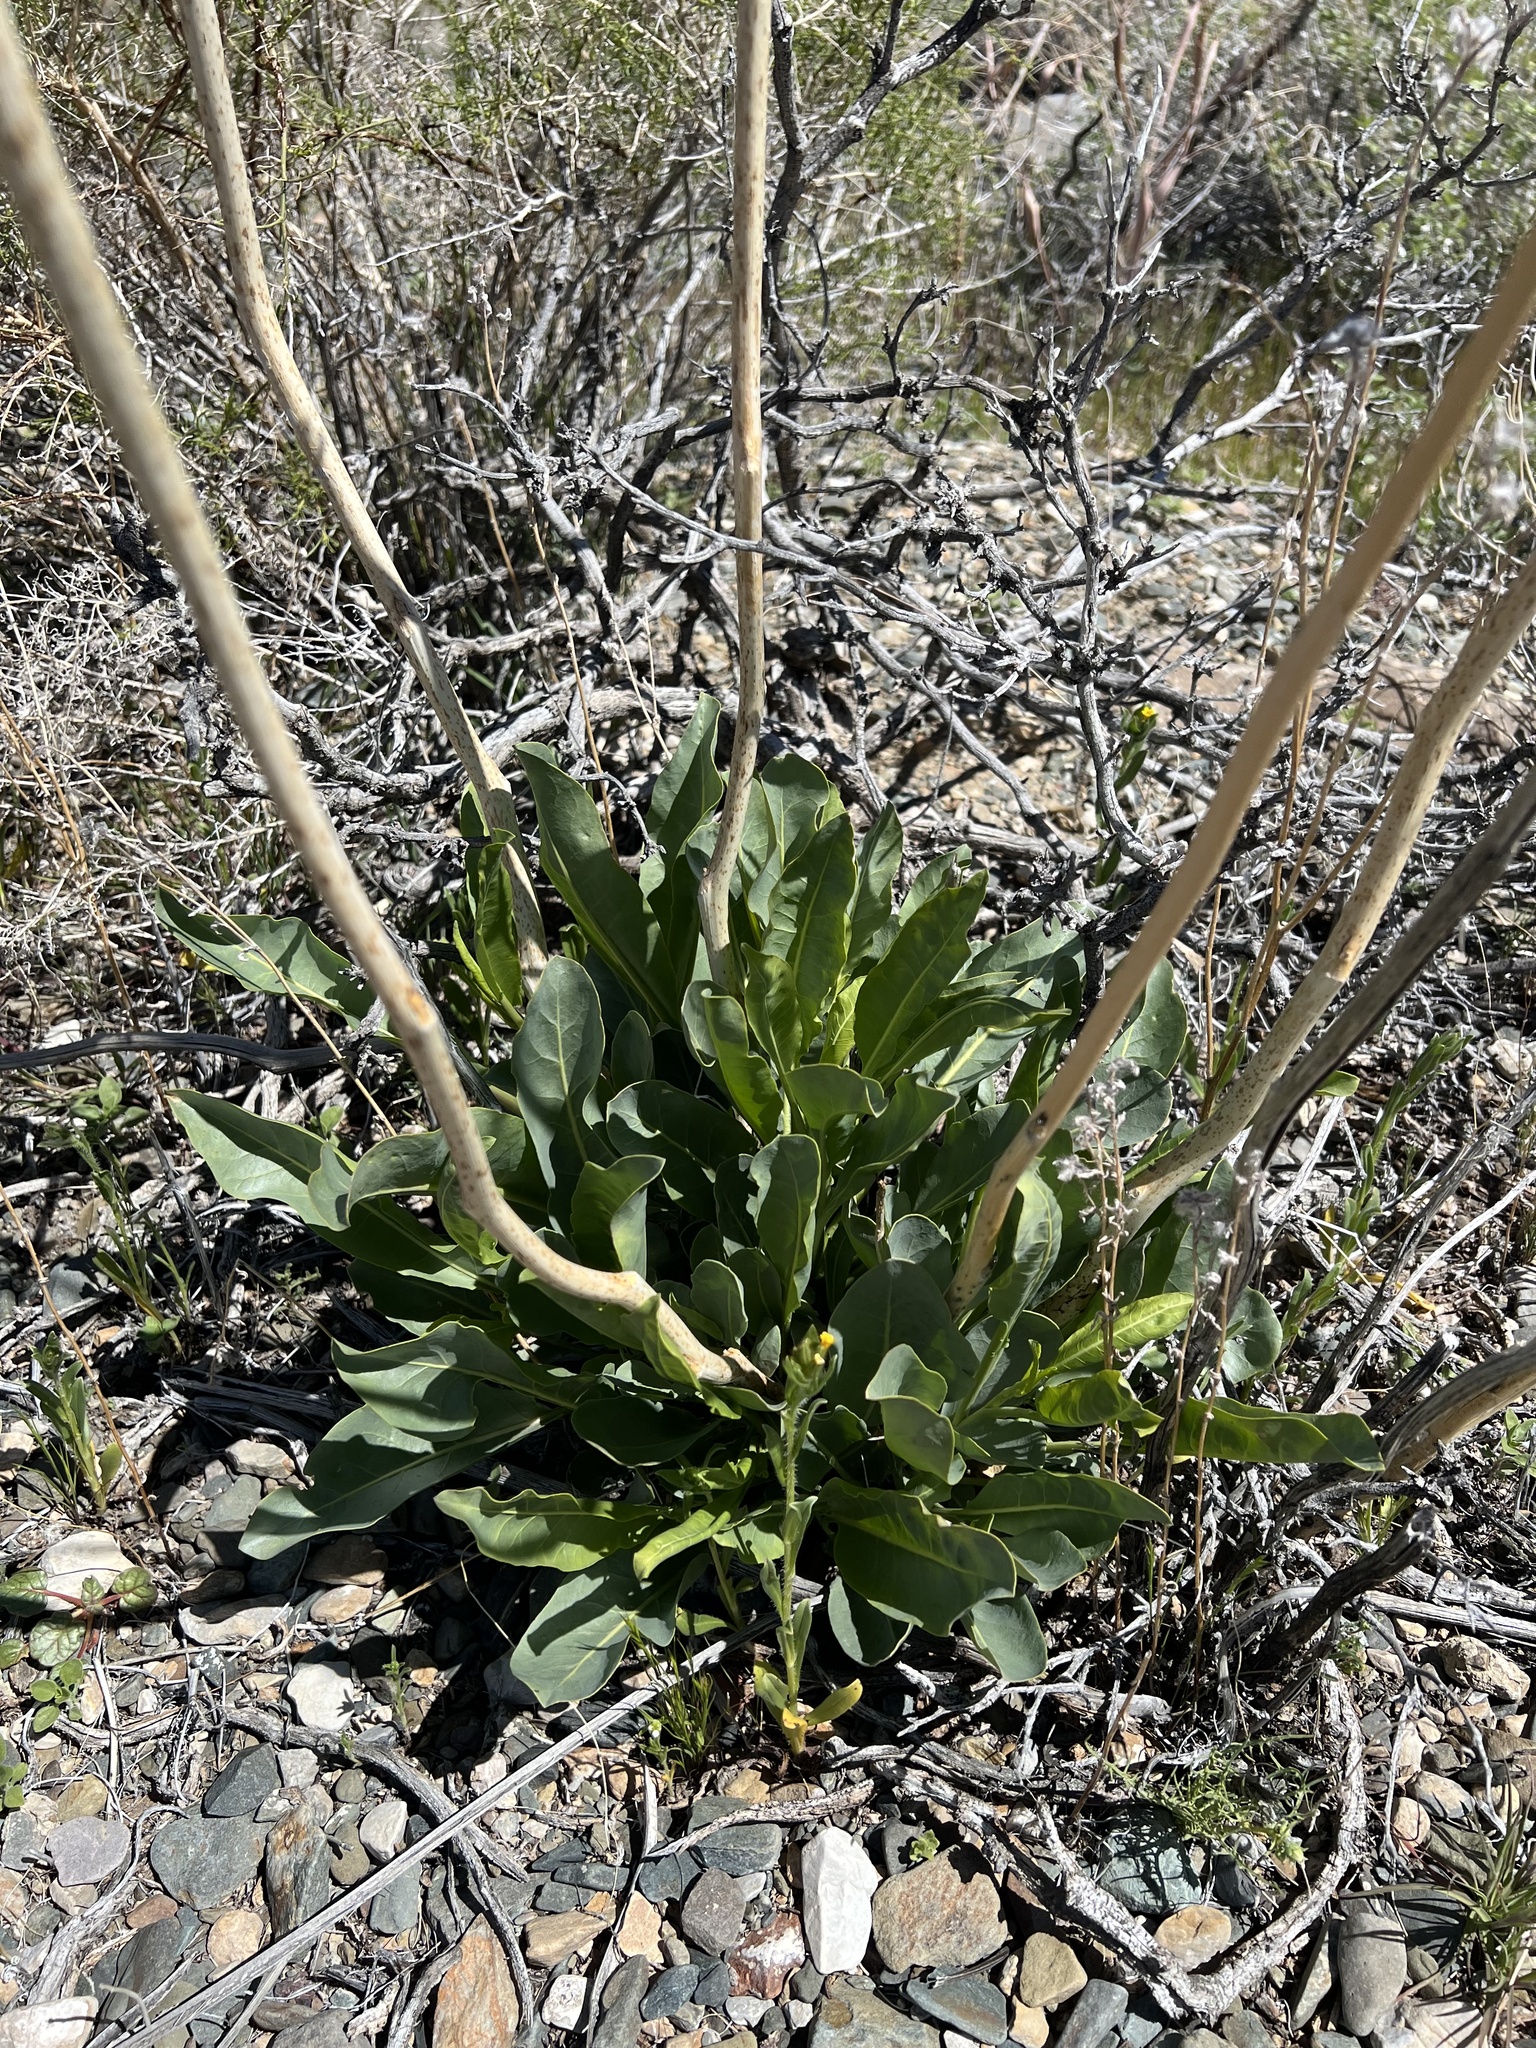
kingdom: Plantae
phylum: Tracheophyta
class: Magnoliopsida
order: Brassicales
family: Brassicaceae
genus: Stanleya
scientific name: Stanleya elata
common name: Panamint prince's plume
